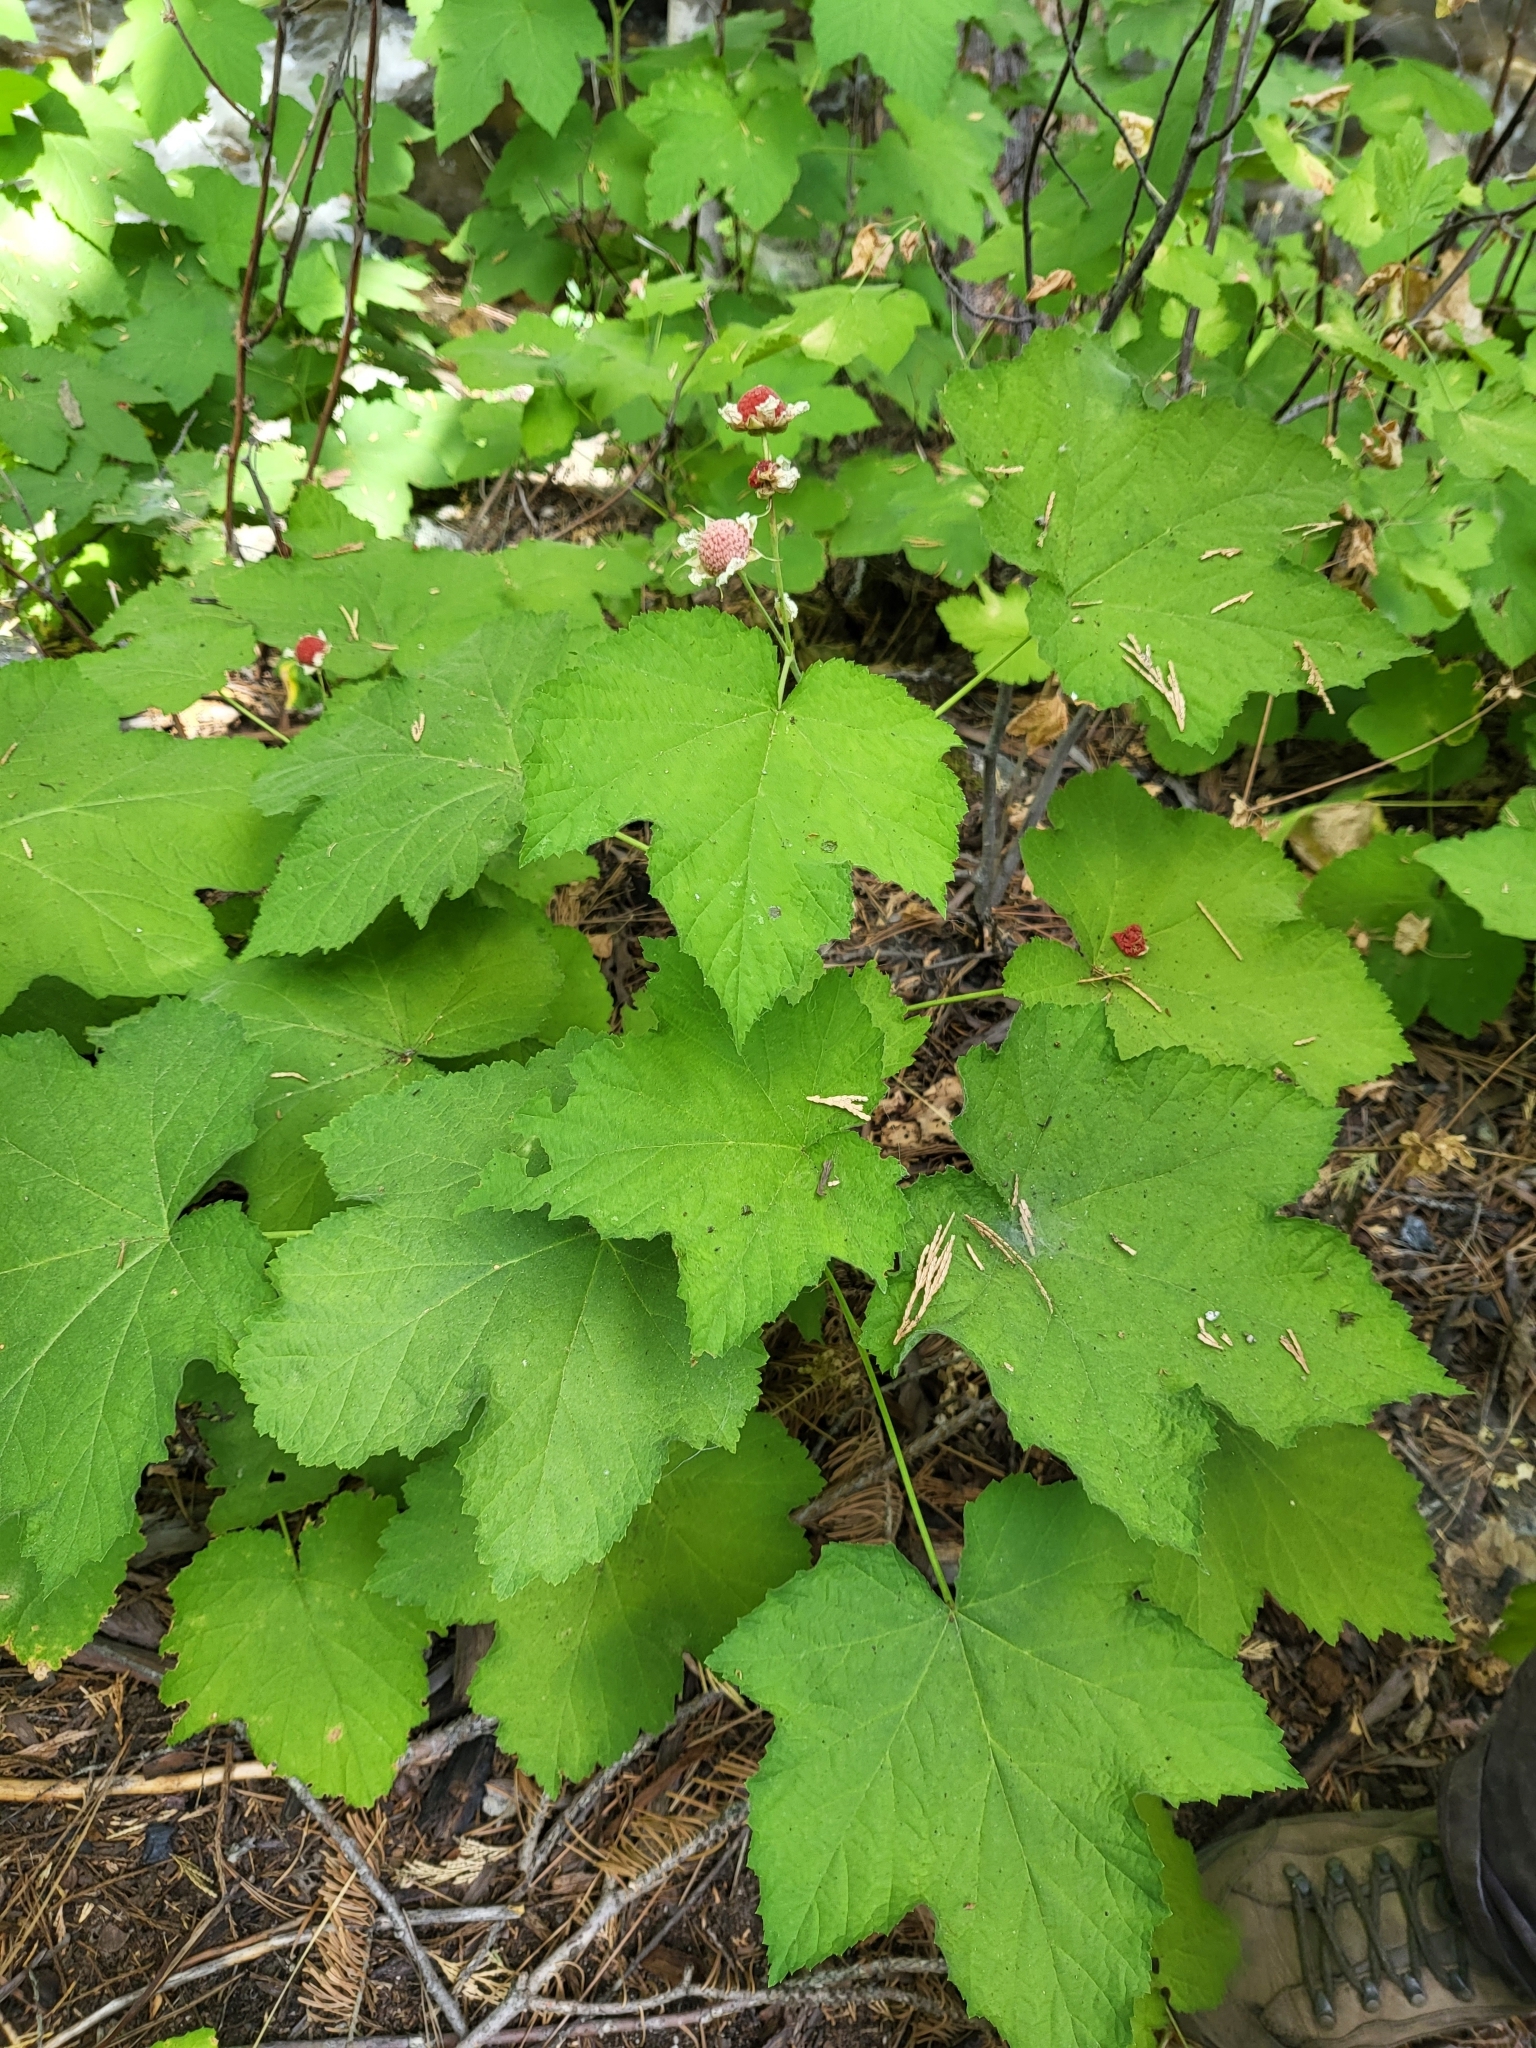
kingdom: Plantae
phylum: Tracheophyta
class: Magnoliopsida
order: Rosales
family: Rosaceae
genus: Rubus
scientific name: Rubus parviflorus
